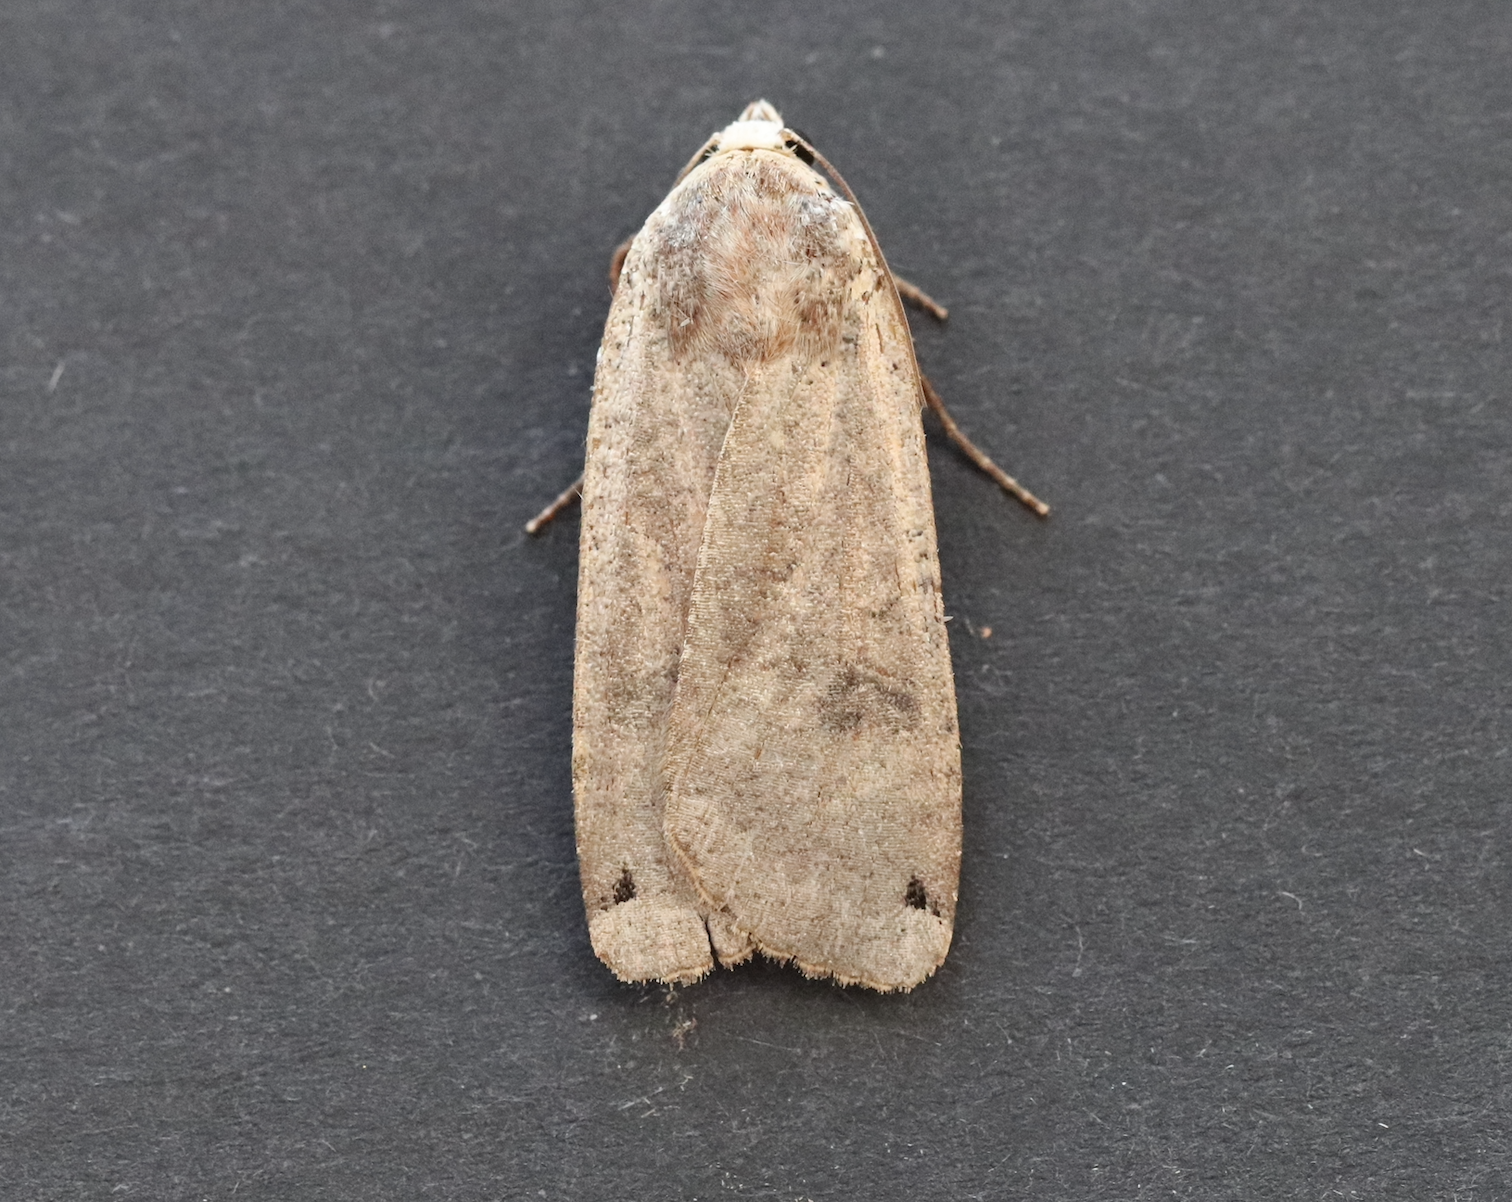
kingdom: Animalia
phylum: Arthropoda
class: Insecta
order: Lepidoptera
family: Noctuidae
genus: Noctua
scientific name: Noctua pronuba
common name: Large yellow underwing
